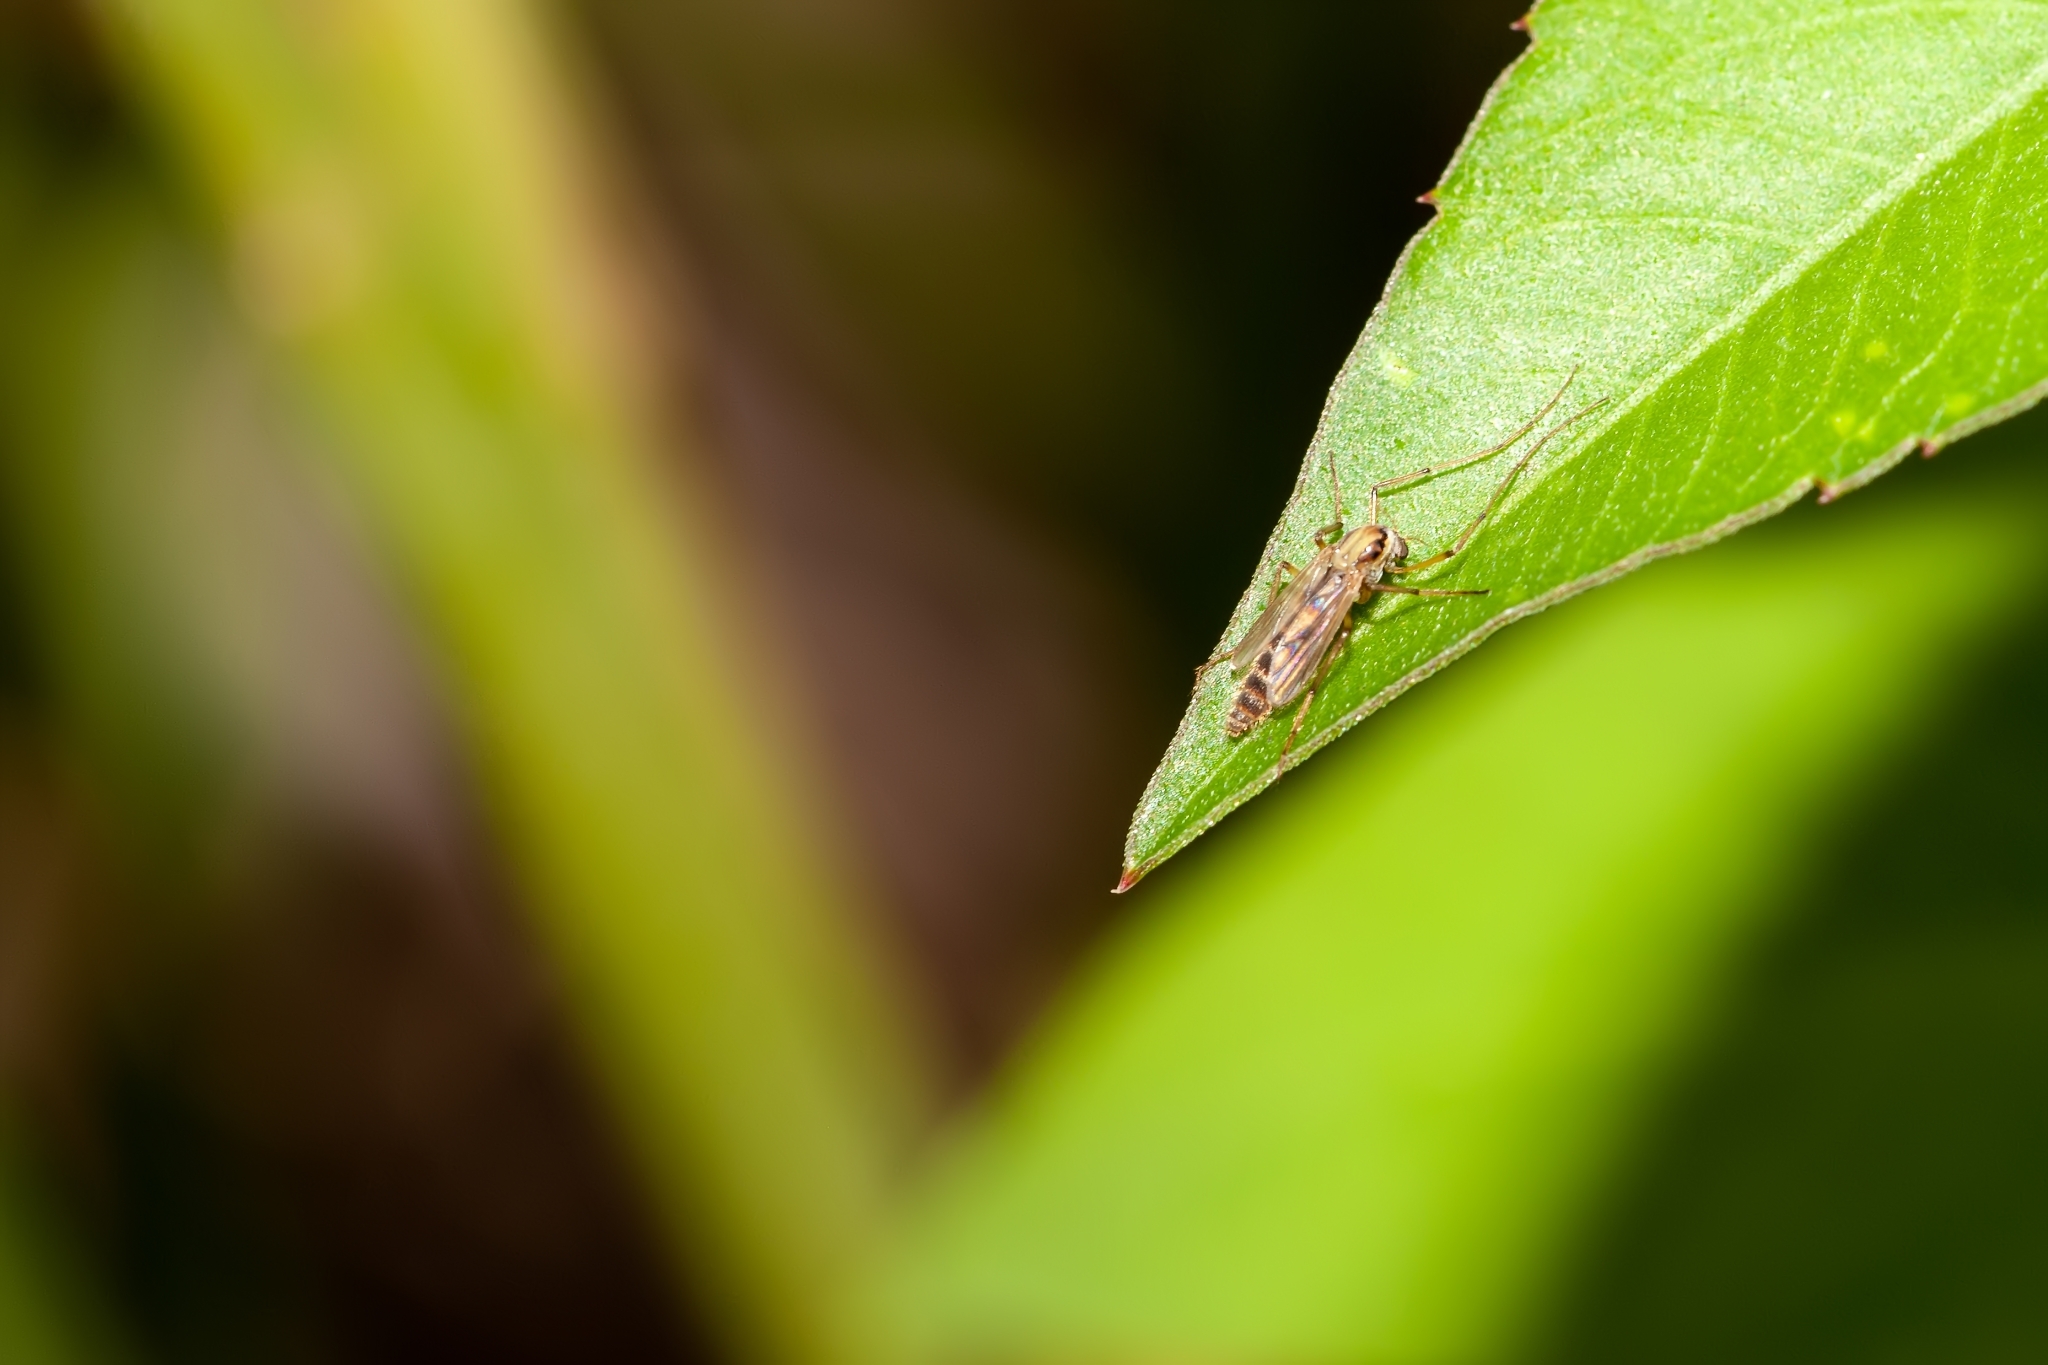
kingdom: Animalia
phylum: Arthropoda
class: Insecta
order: Diptera
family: Chironomidae
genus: Goeldichironomus
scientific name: Goeldichironomus carus
